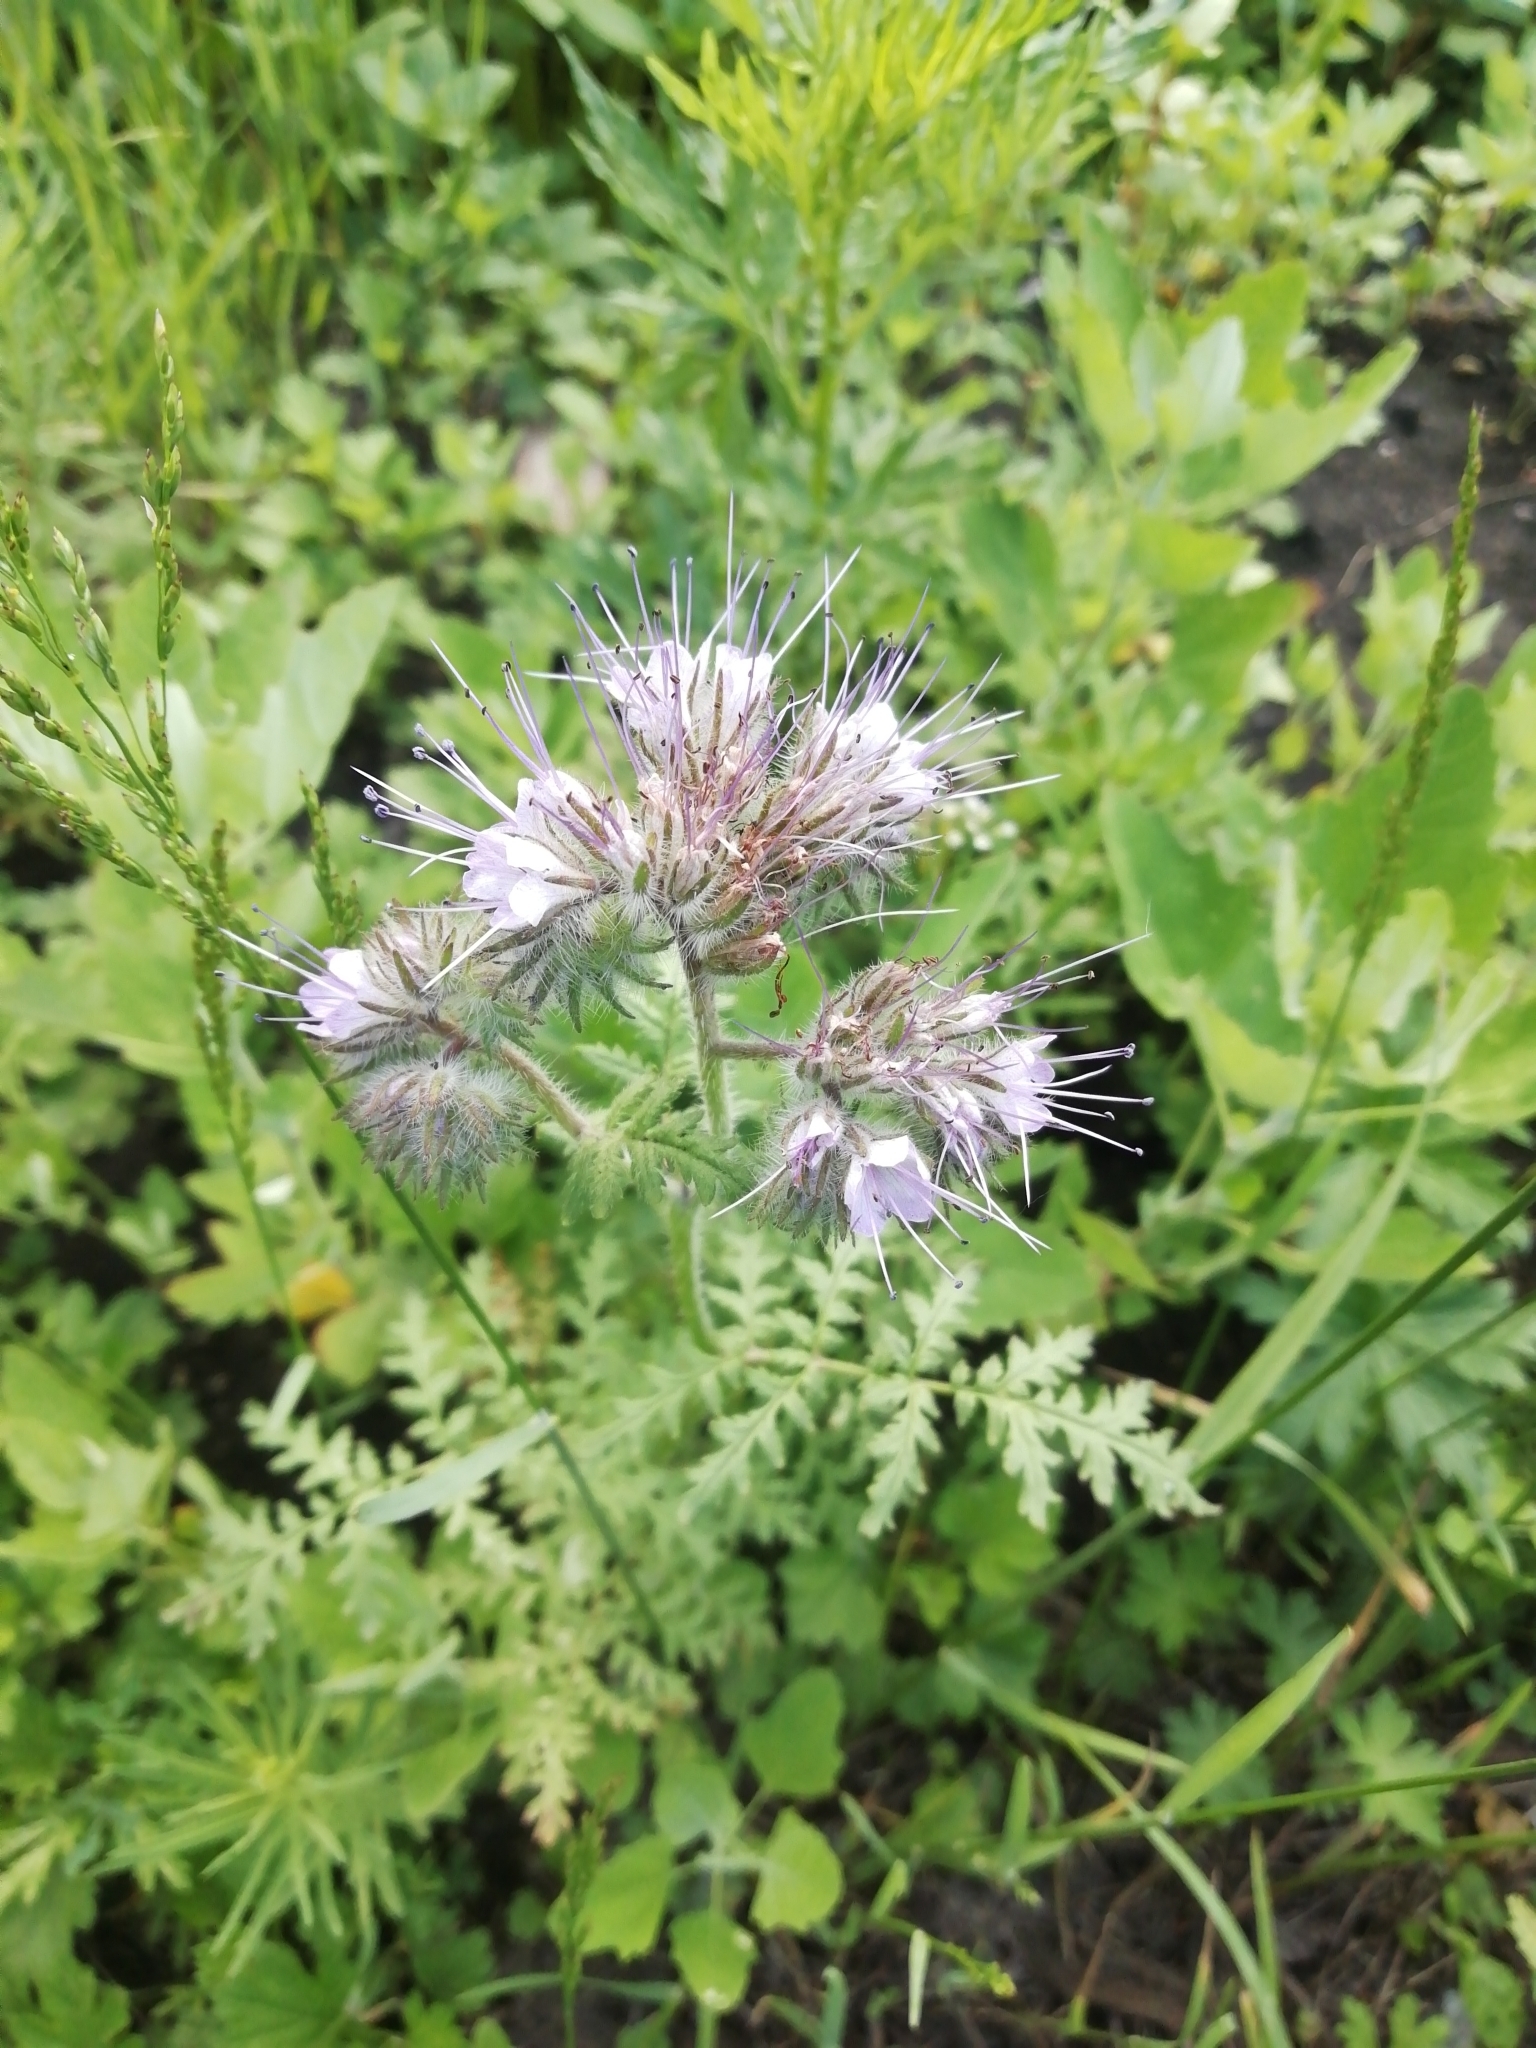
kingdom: Plantae
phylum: Tracheophyta
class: Magnoliopsida
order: Boraginales
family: Hydrophyllaceae
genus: Phacelia
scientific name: Phacelia tanacetifolia
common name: Phacelia
